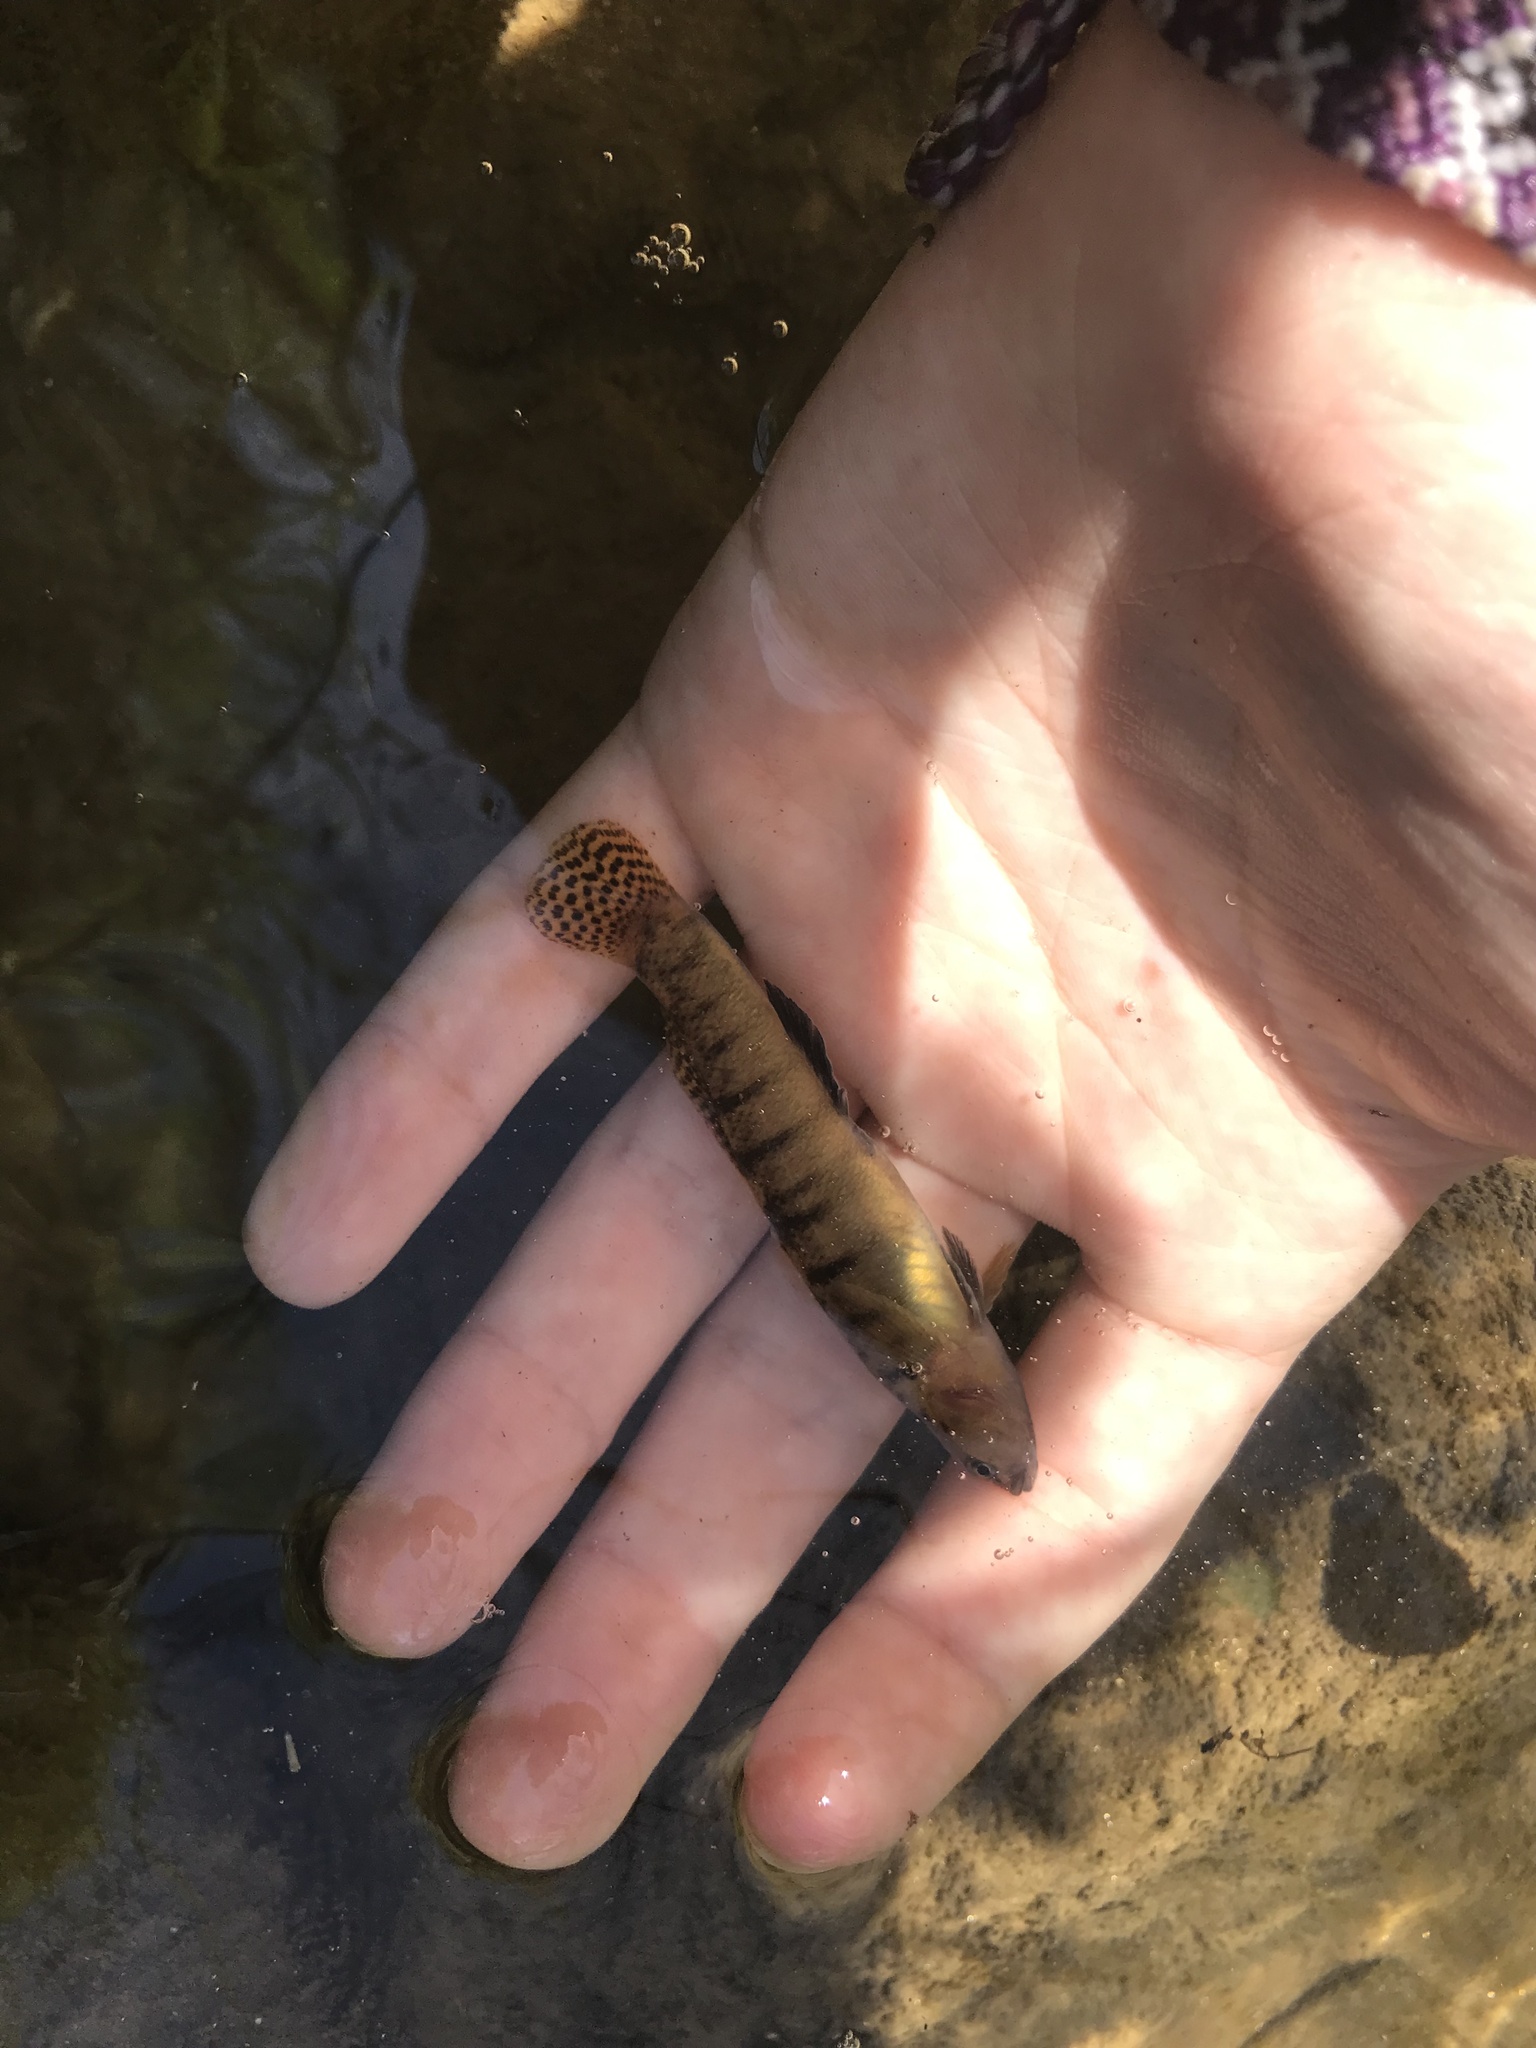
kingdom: Animalia
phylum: Chordata
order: Perciformes
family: Percidae
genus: Etheostoma
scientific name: Etheostoma flabellare
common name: Fantail darter
